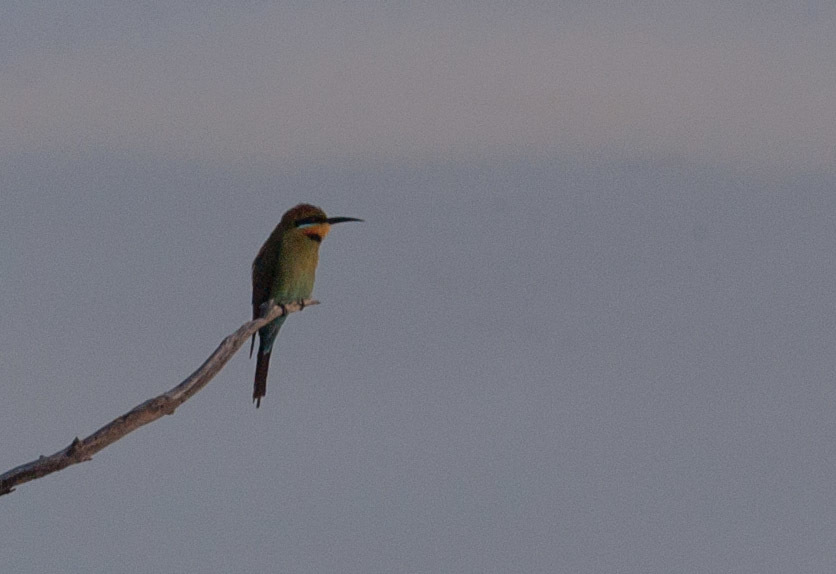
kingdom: Animalia
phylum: Chordata
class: Aves
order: Coraciiformes
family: Meropidae
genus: Merops
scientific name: Merops ornatus
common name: Rainbow bee-eater
